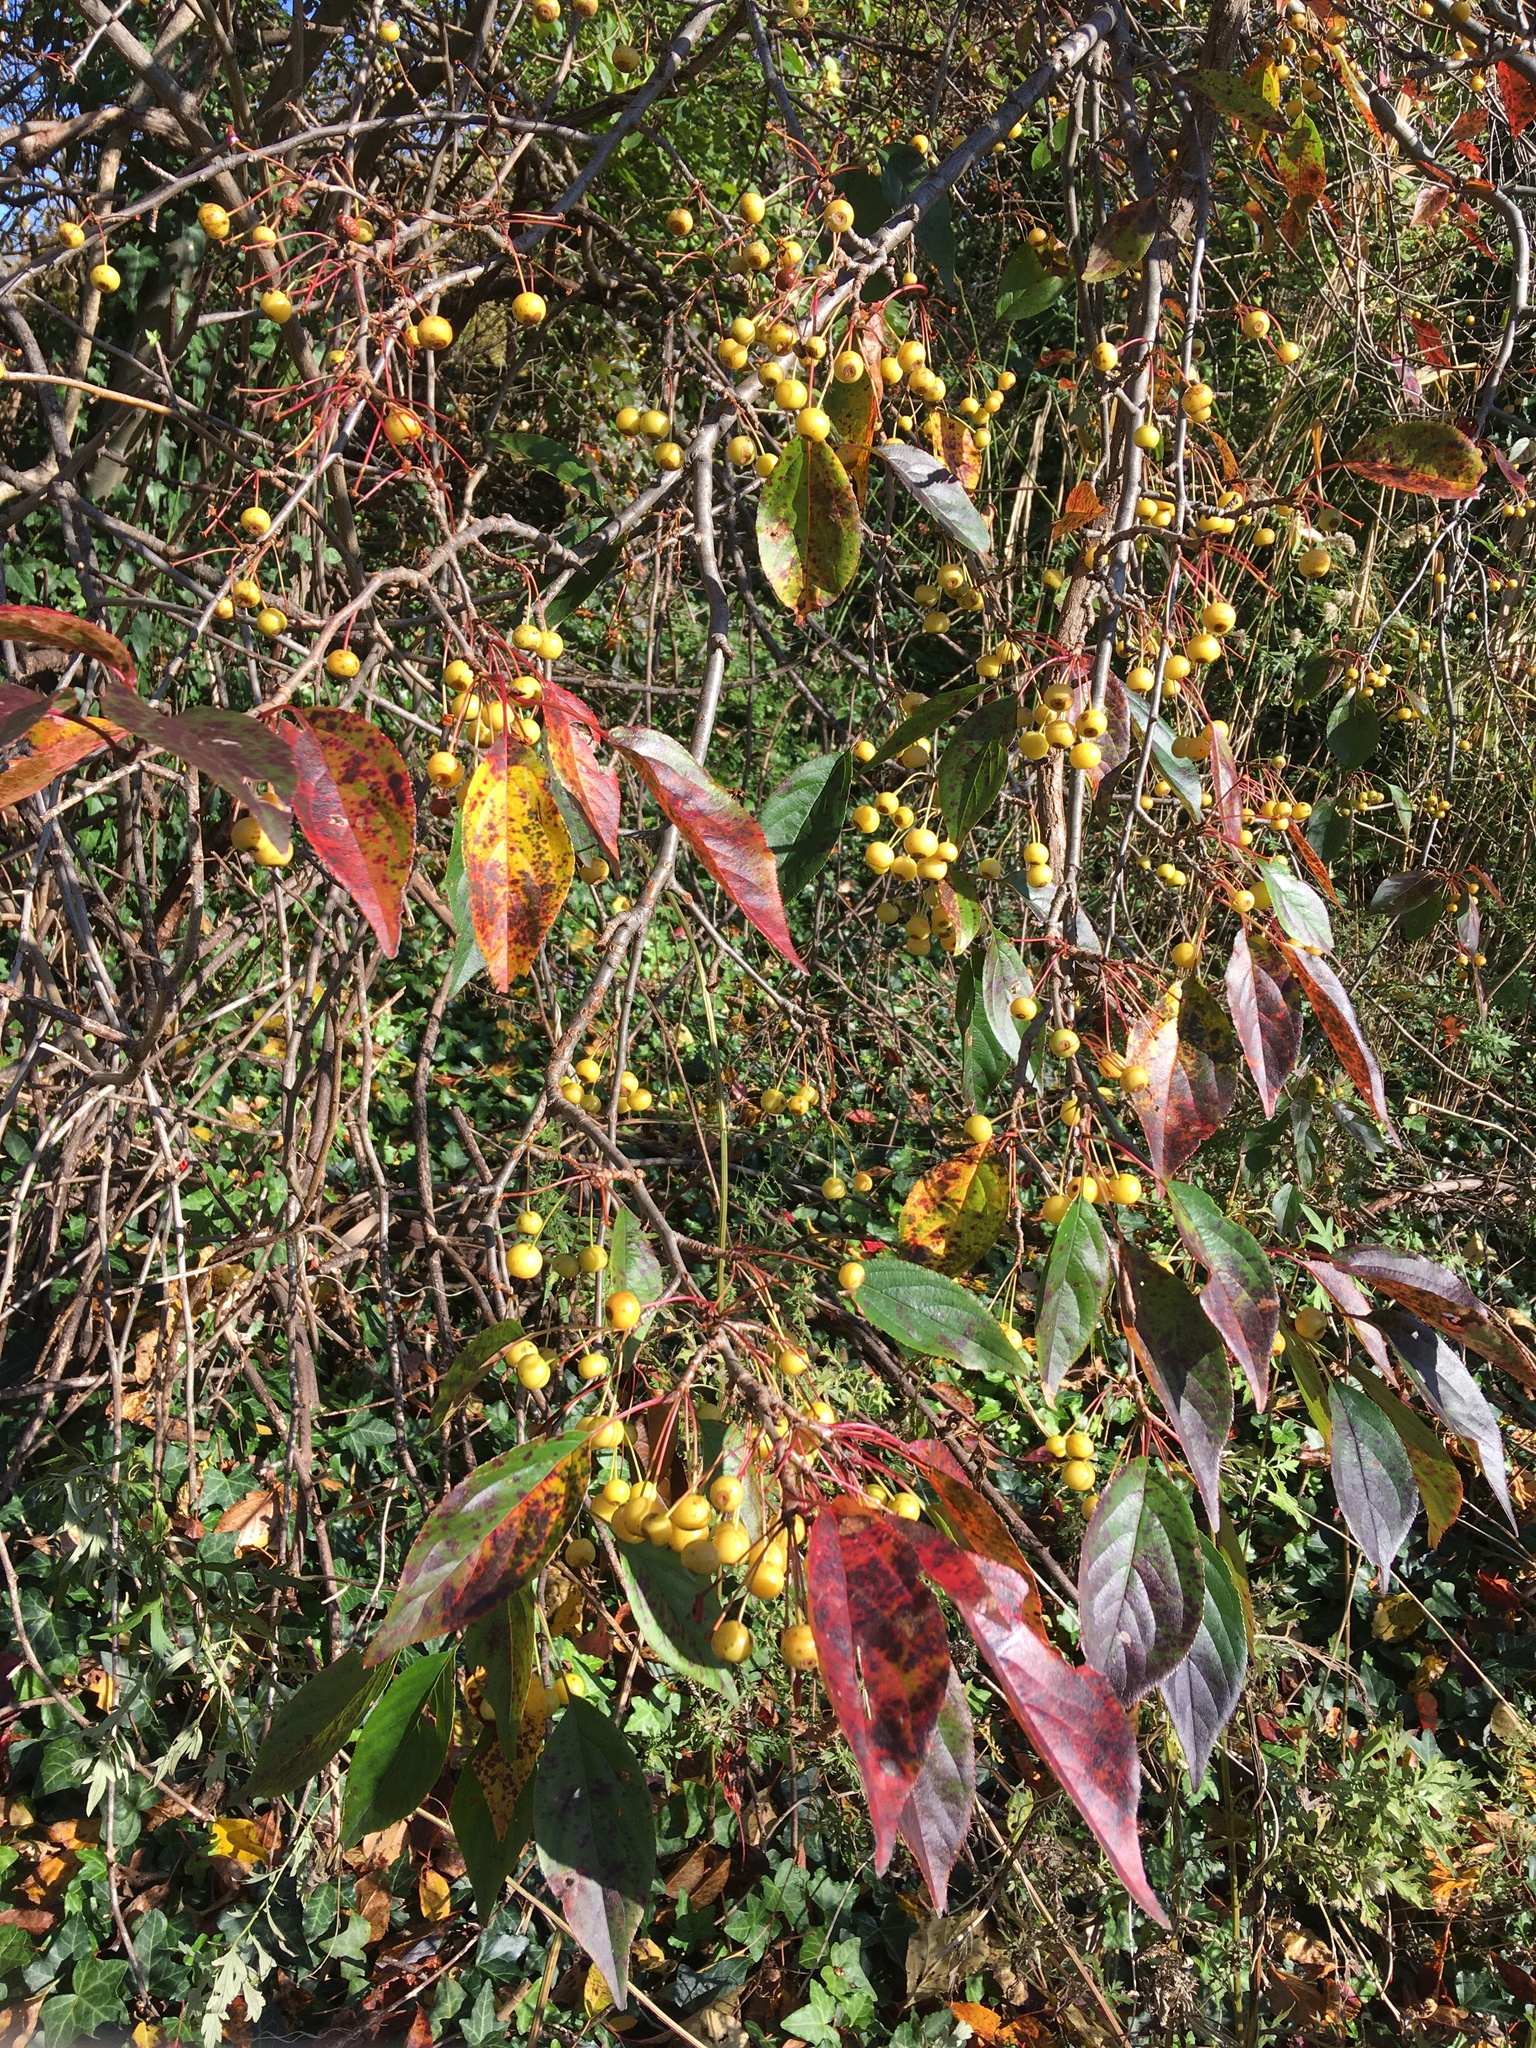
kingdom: Plantae
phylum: Tracheophyta
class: Magnoliopsida
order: Rosales
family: Rosaceae
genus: Malus
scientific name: Malus hupehensis
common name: Chinese crab apple
